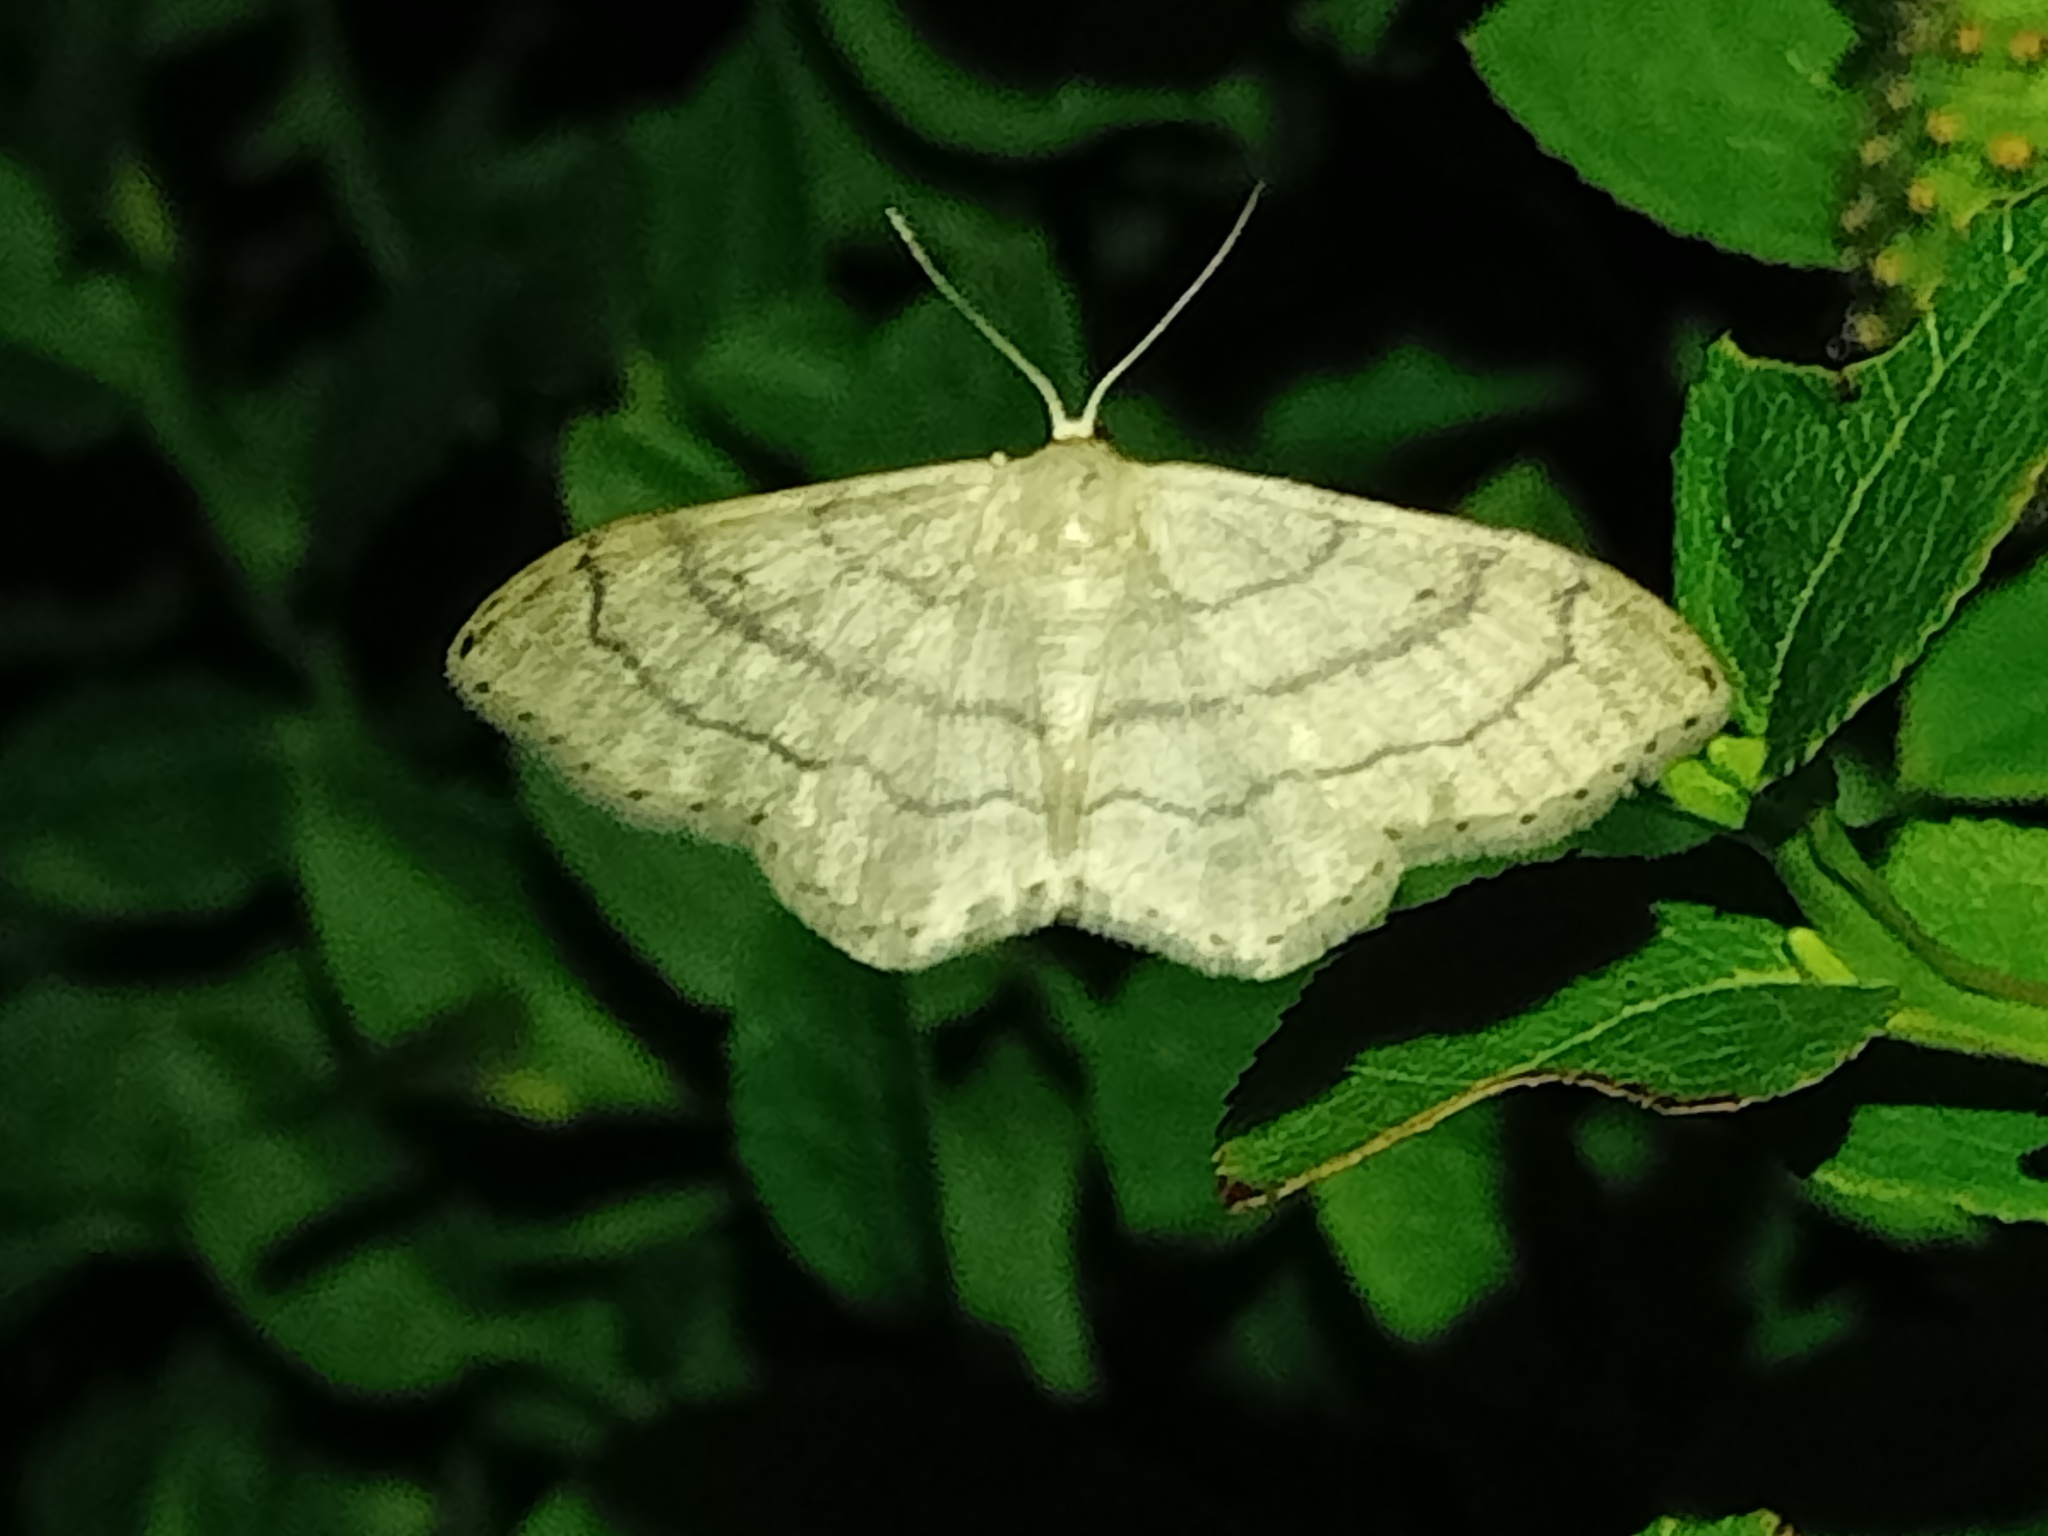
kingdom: Animalia
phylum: Arthropoda
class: Insecta
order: Lepidoptera
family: Geometridae
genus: Idaea
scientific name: Idaea aversata
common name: Riband wave
